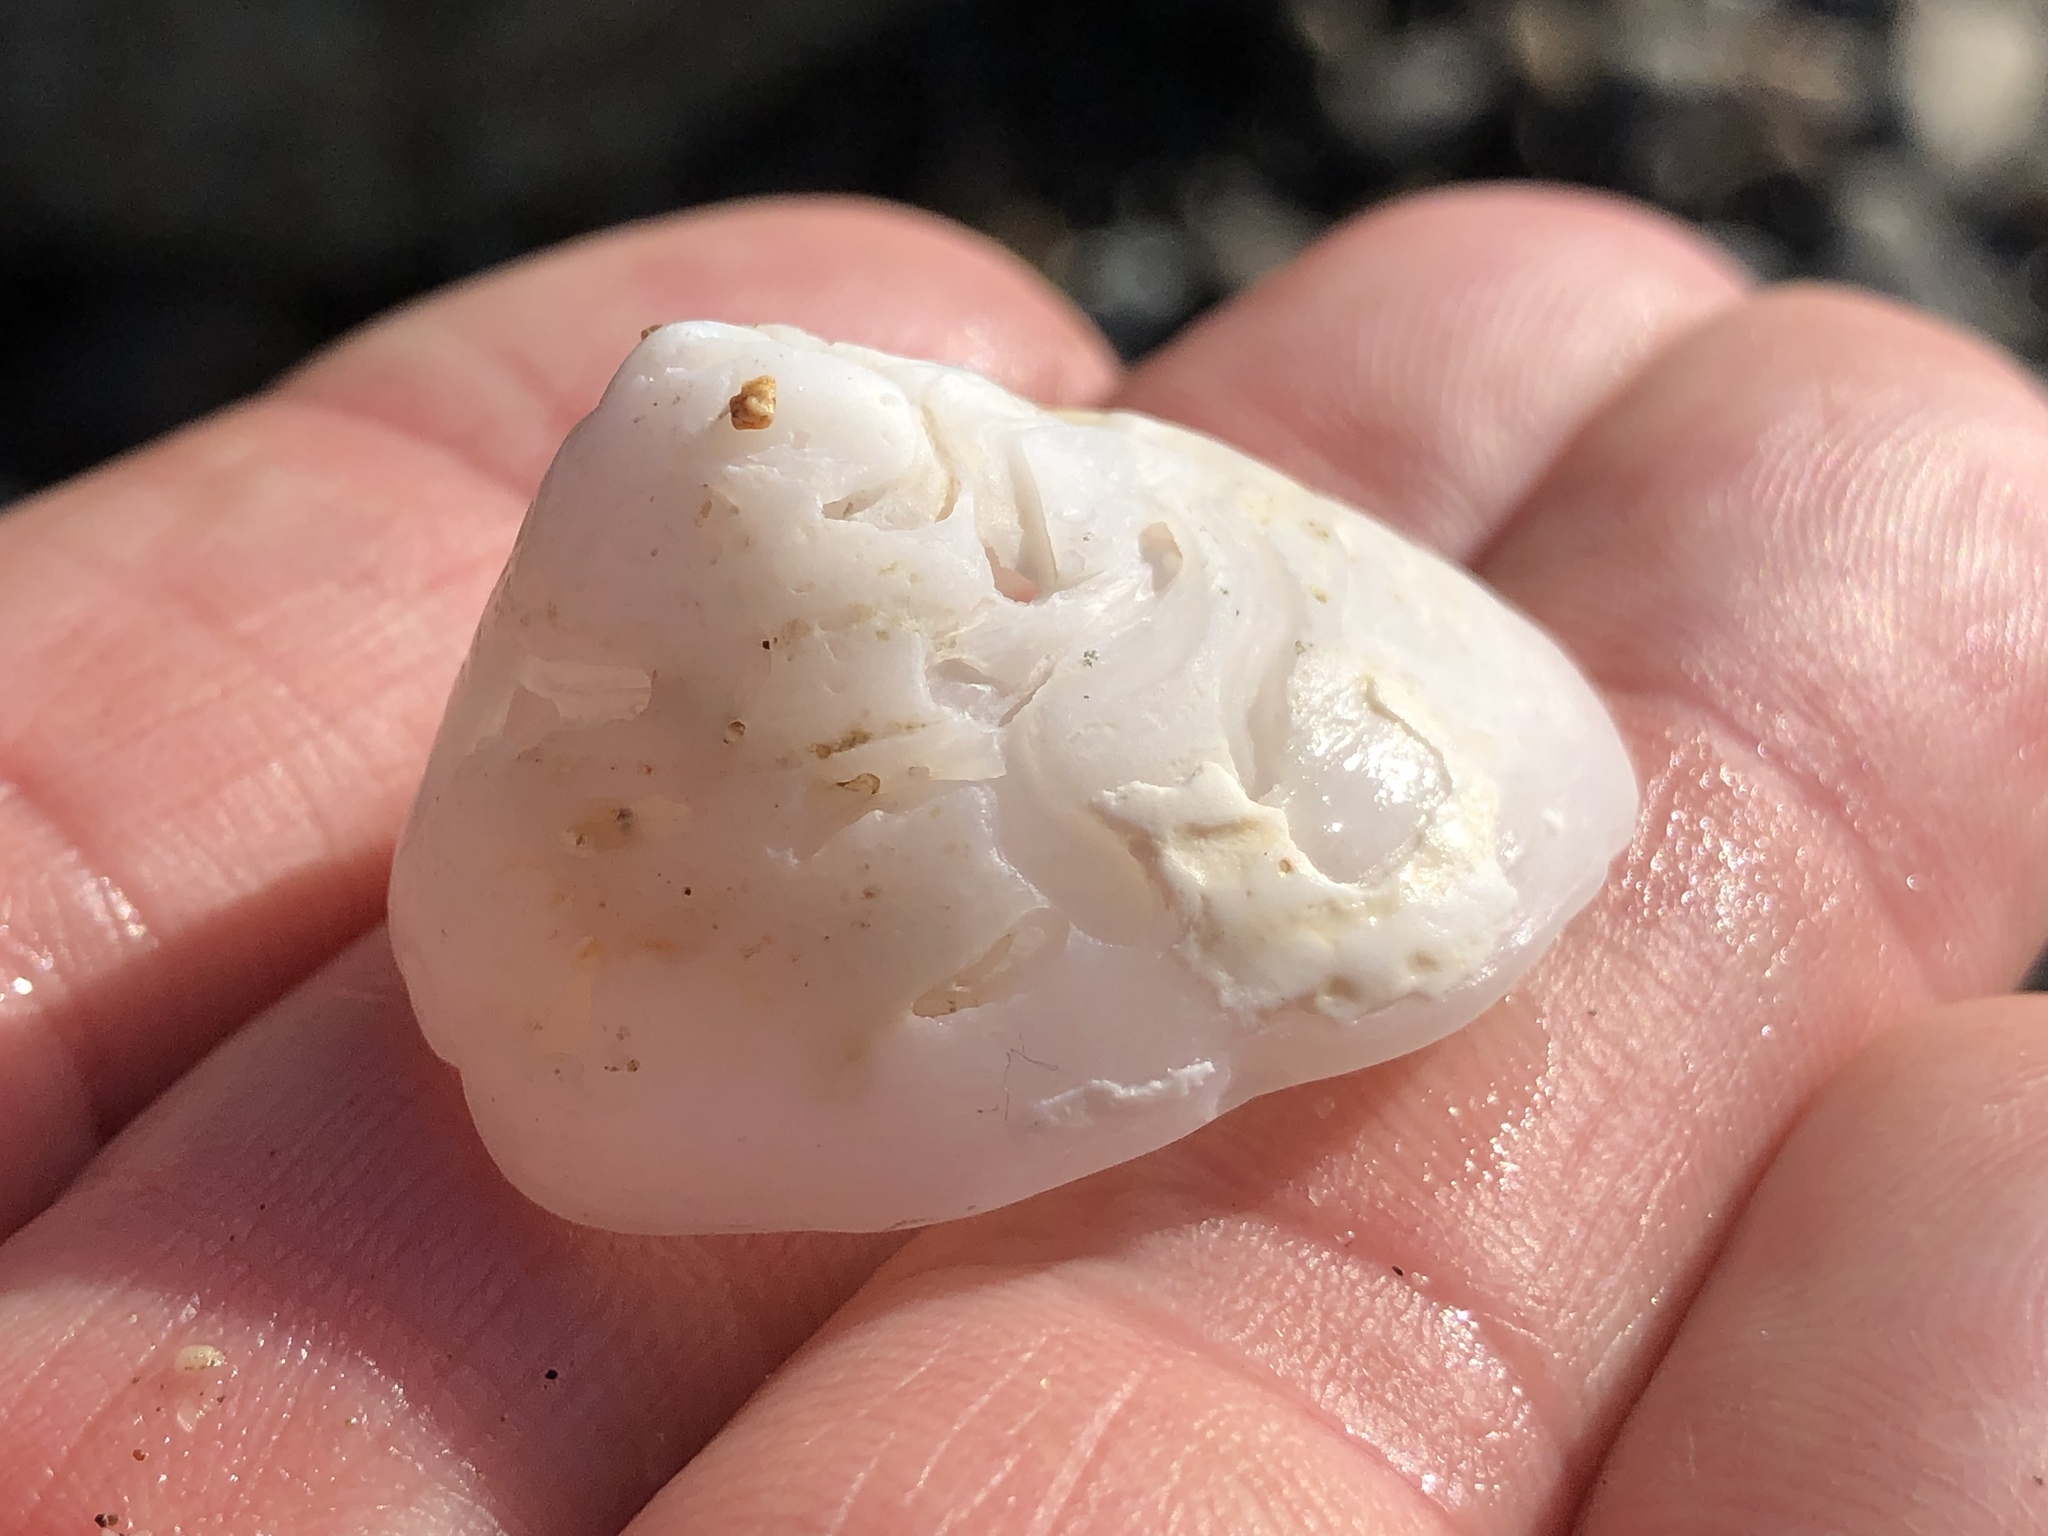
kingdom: Animalia
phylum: Mollusca
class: Gastropoda
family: Acmaeidae
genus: Acmaea
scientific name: Acmaea mitra
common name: Pacific white cap limpet
